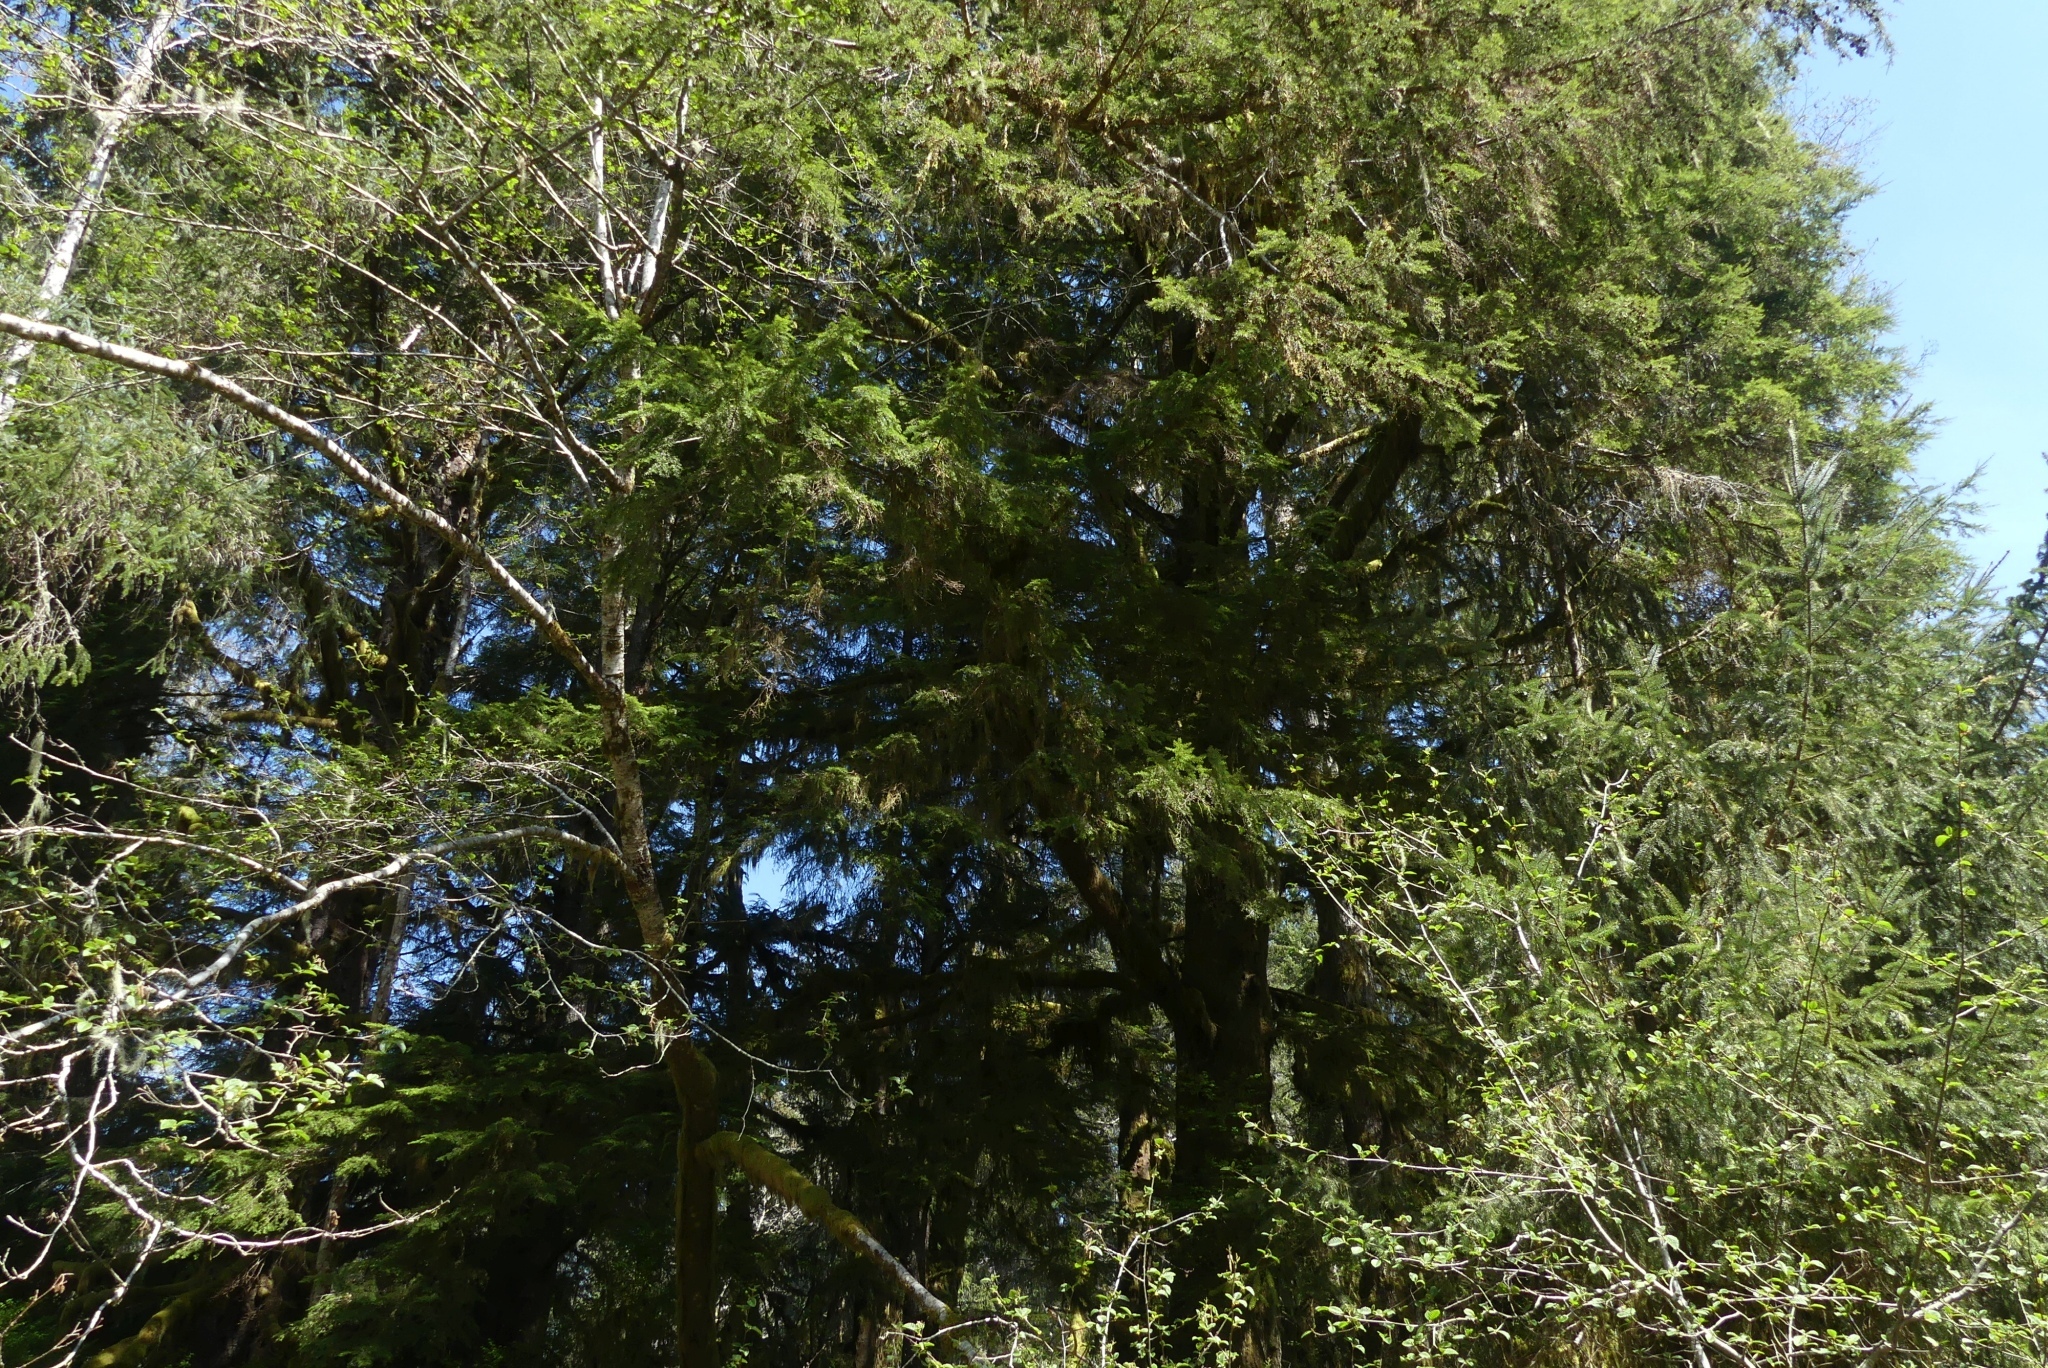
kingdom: Plantae
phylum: Tracheophyta
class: Pinopsida
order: Pinales
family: Pinaceae
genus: Tsuga
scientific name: Tsuga heterophylla
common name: Western hemlock
